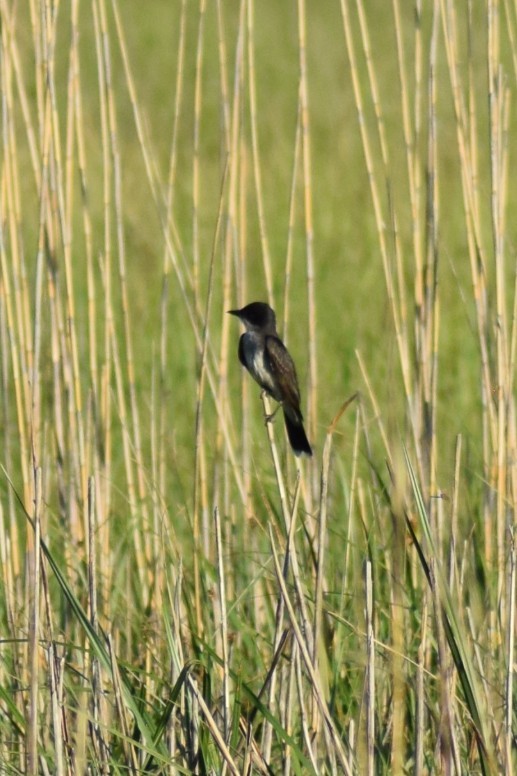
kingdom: Animalia
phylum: Chordata
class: Aves
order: Passeriformes
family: Tyrannidae
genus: Tyrannus
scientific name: Tyrannus tyrannus
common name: Eastern kingbird
